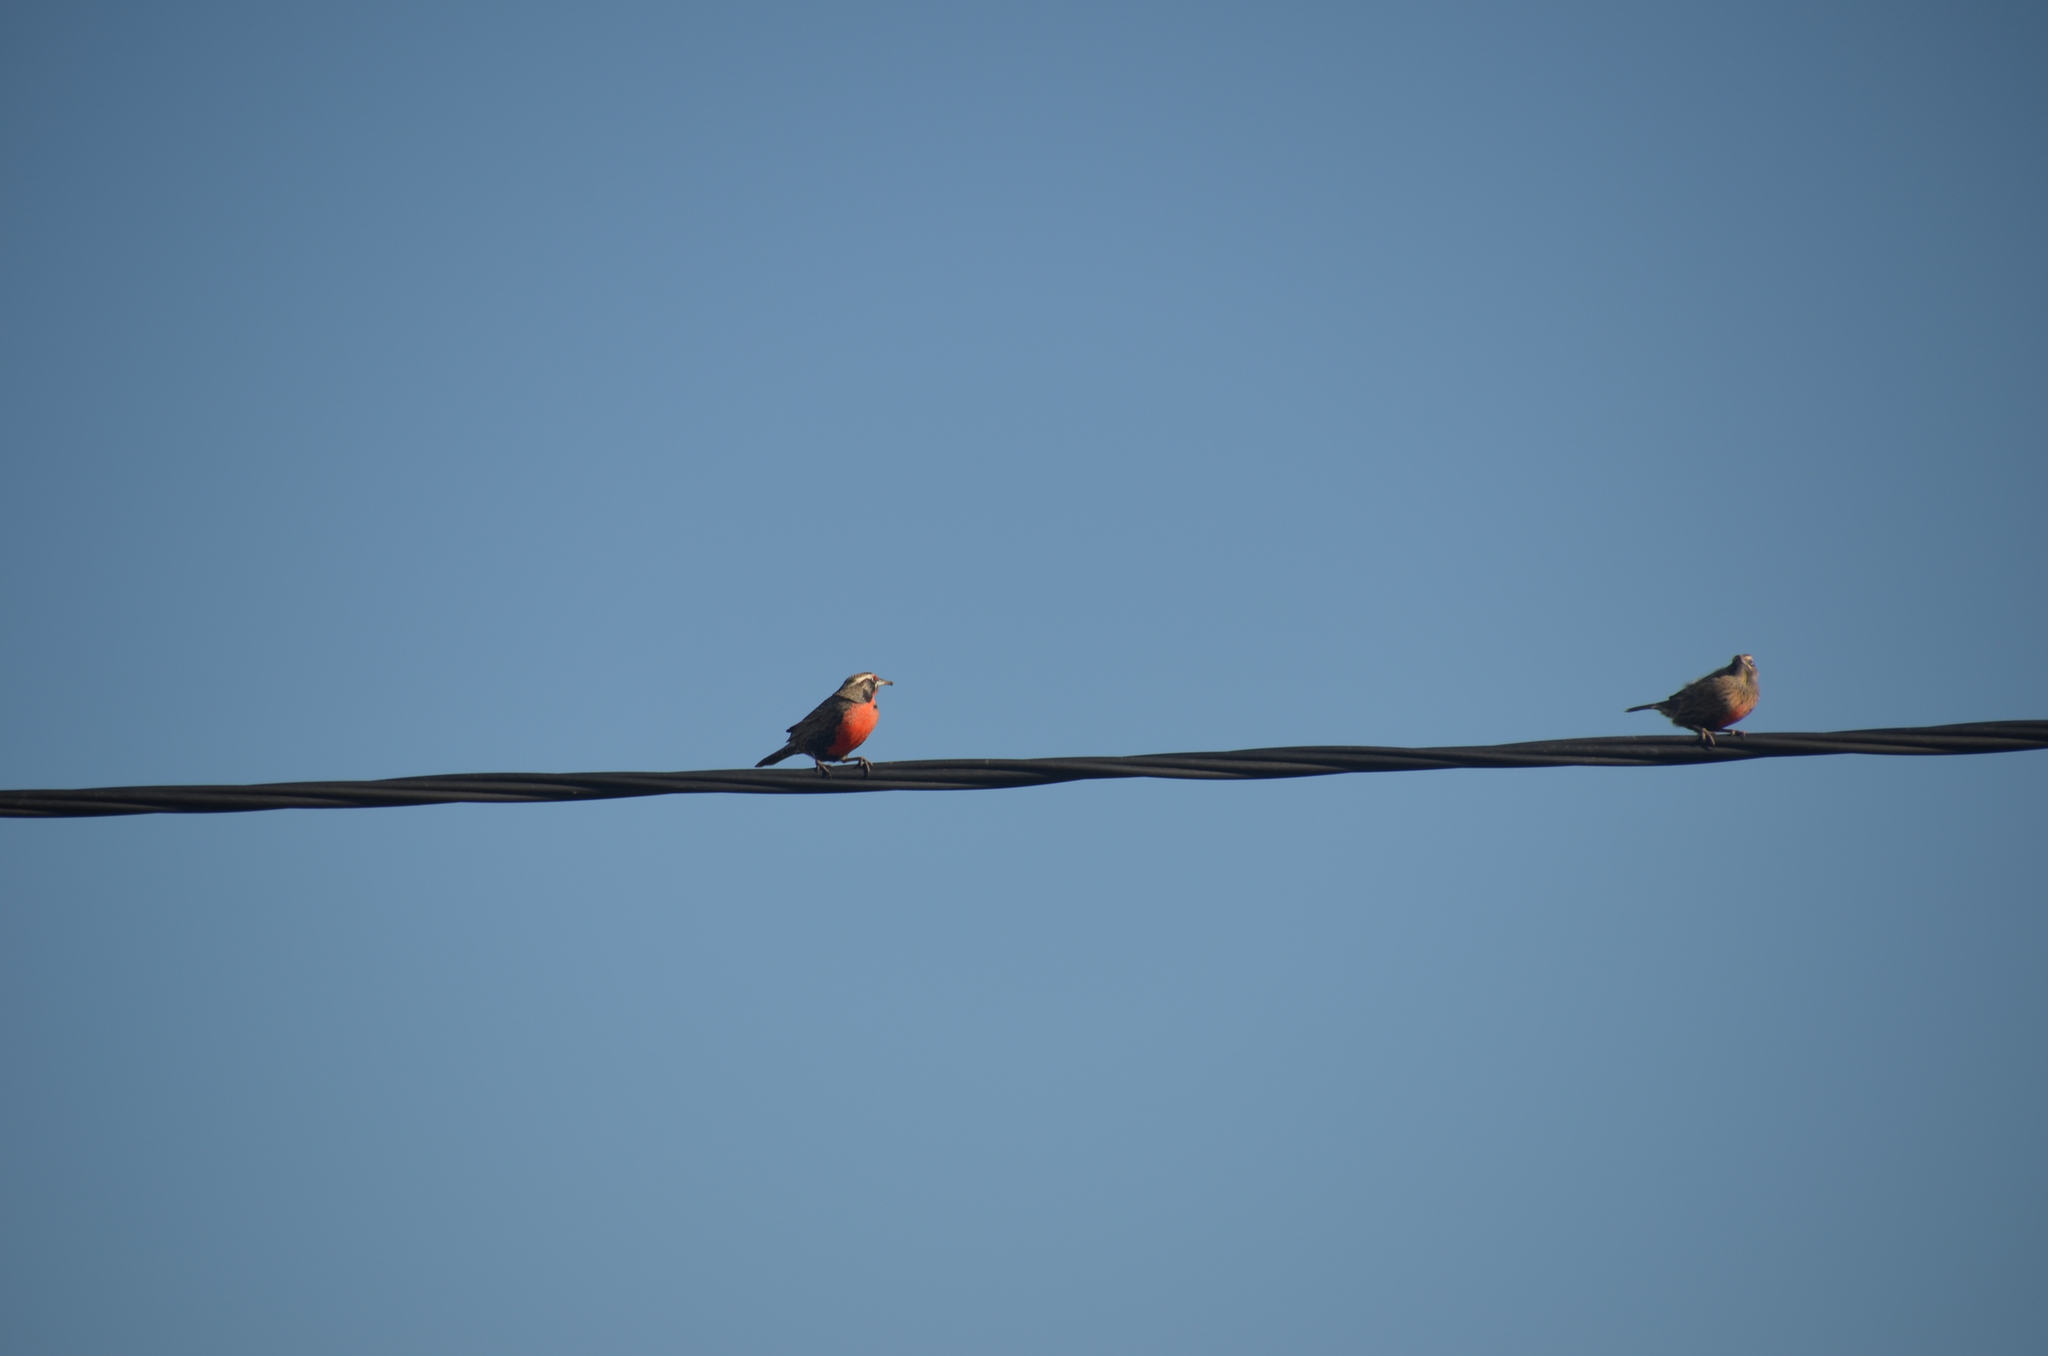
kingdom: Animalia
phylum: Chordata
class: Aves
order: Passeriformes
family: Icteridae
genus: Sturnella
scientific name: Sturnella loyca
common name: Long-tailed meadowlark
